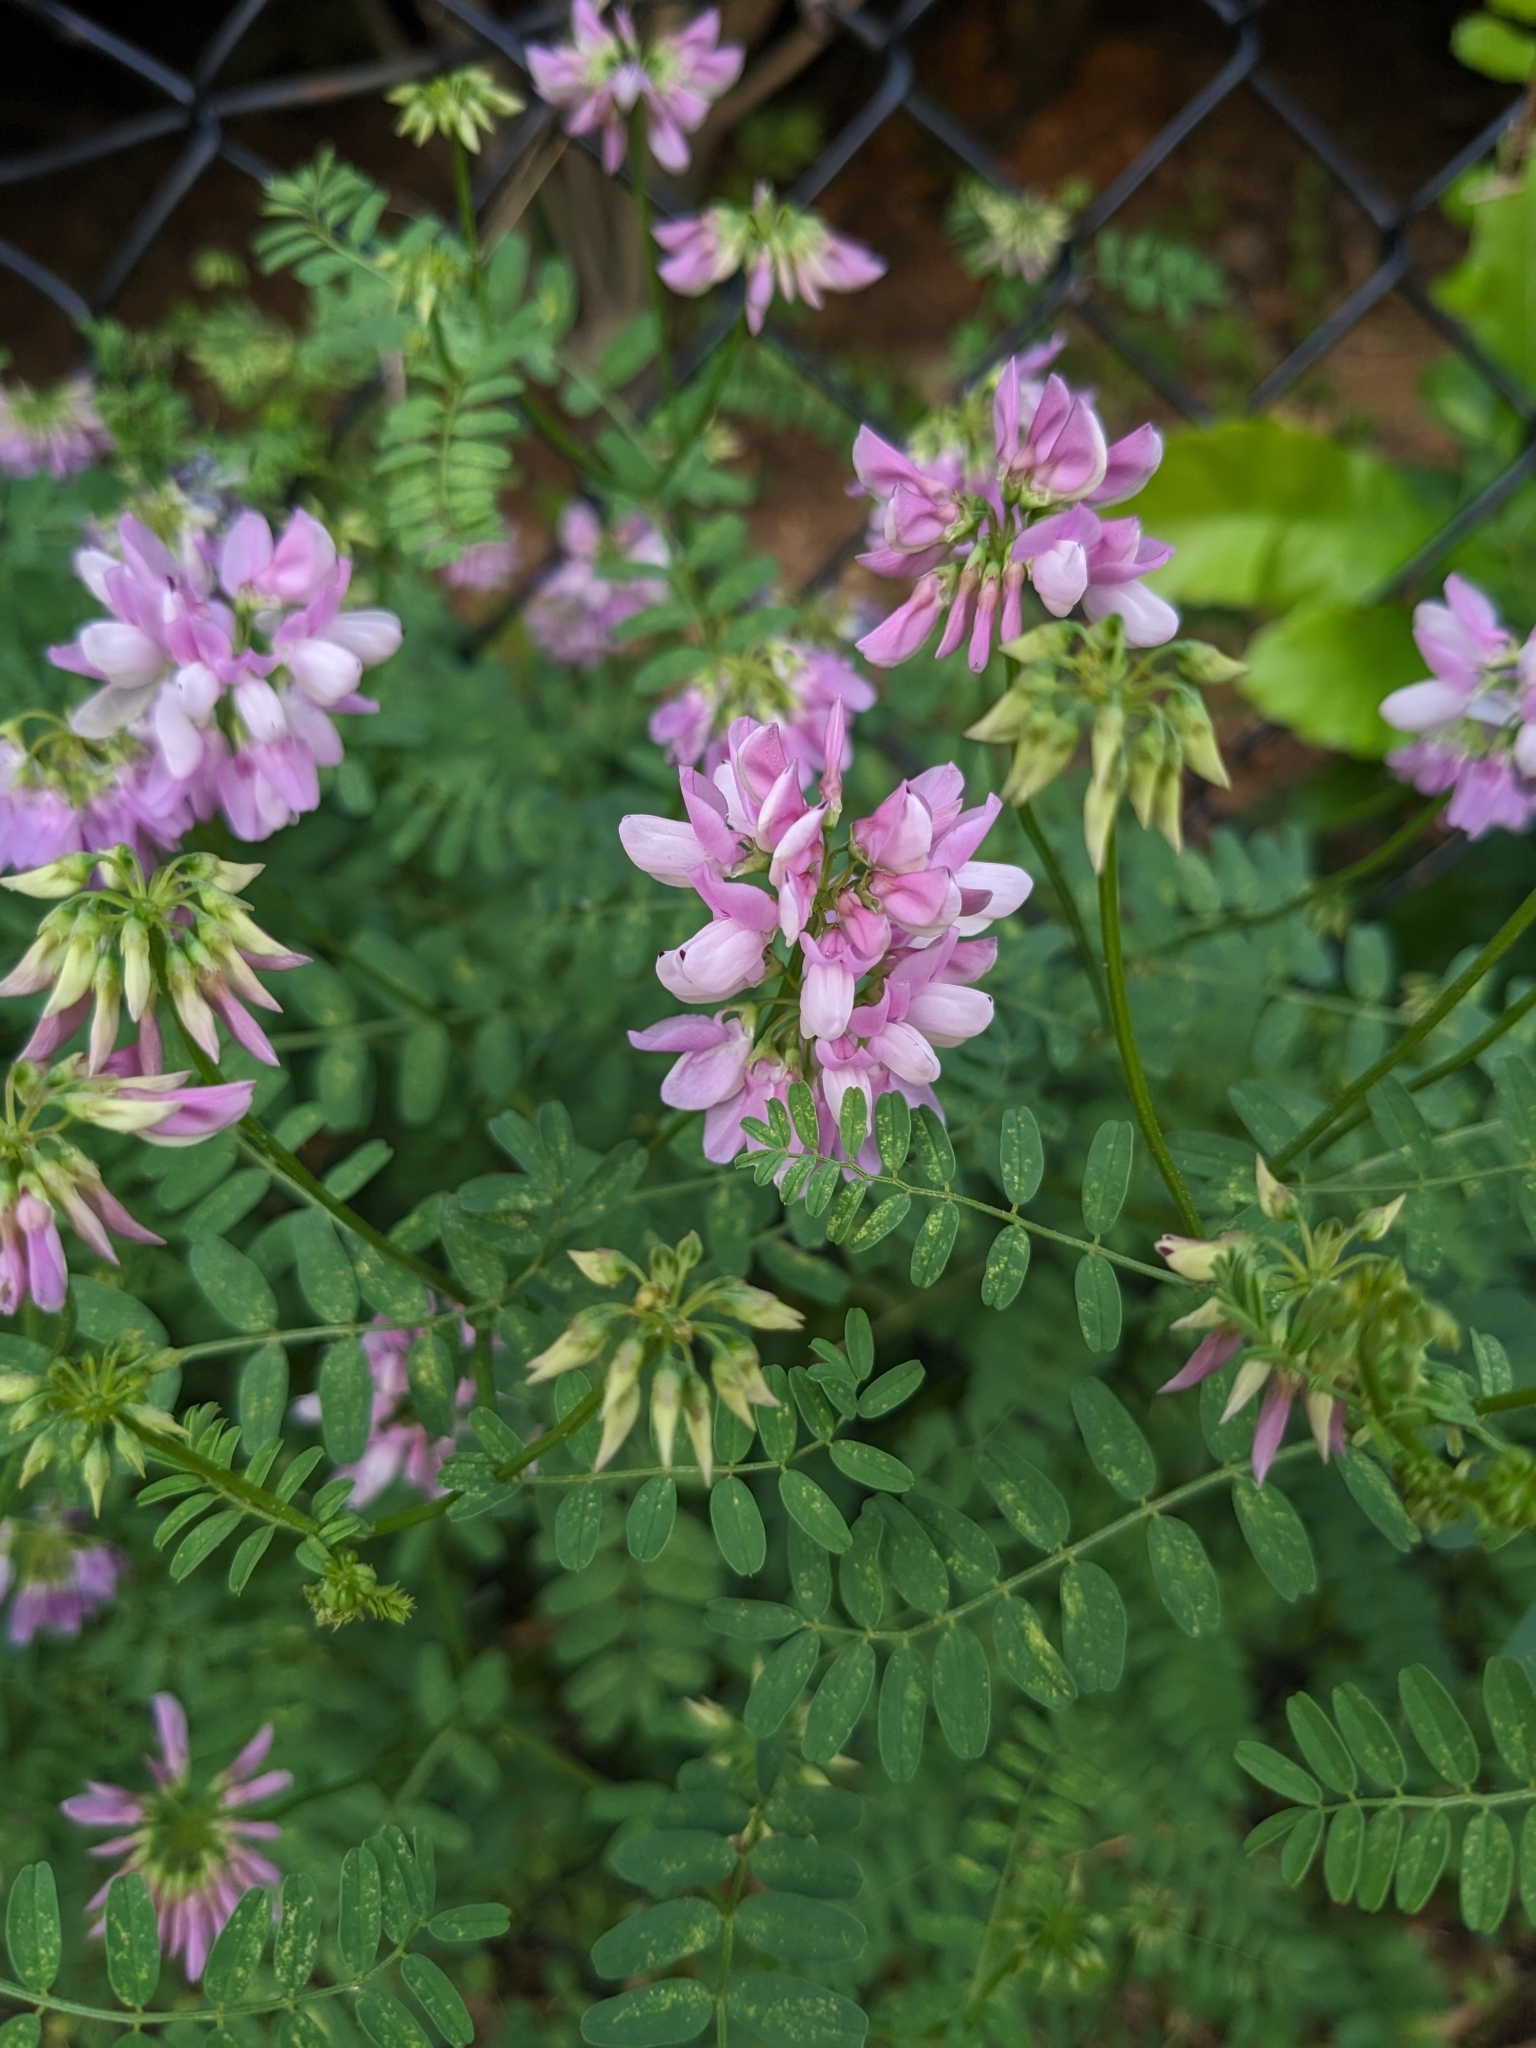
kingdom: Plantae
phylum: Tracheophyta
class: Magnoliopsida
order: Fabales
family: Fabaceae
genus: Coronilla
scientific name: Coronilla varia
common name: Crownvetch
